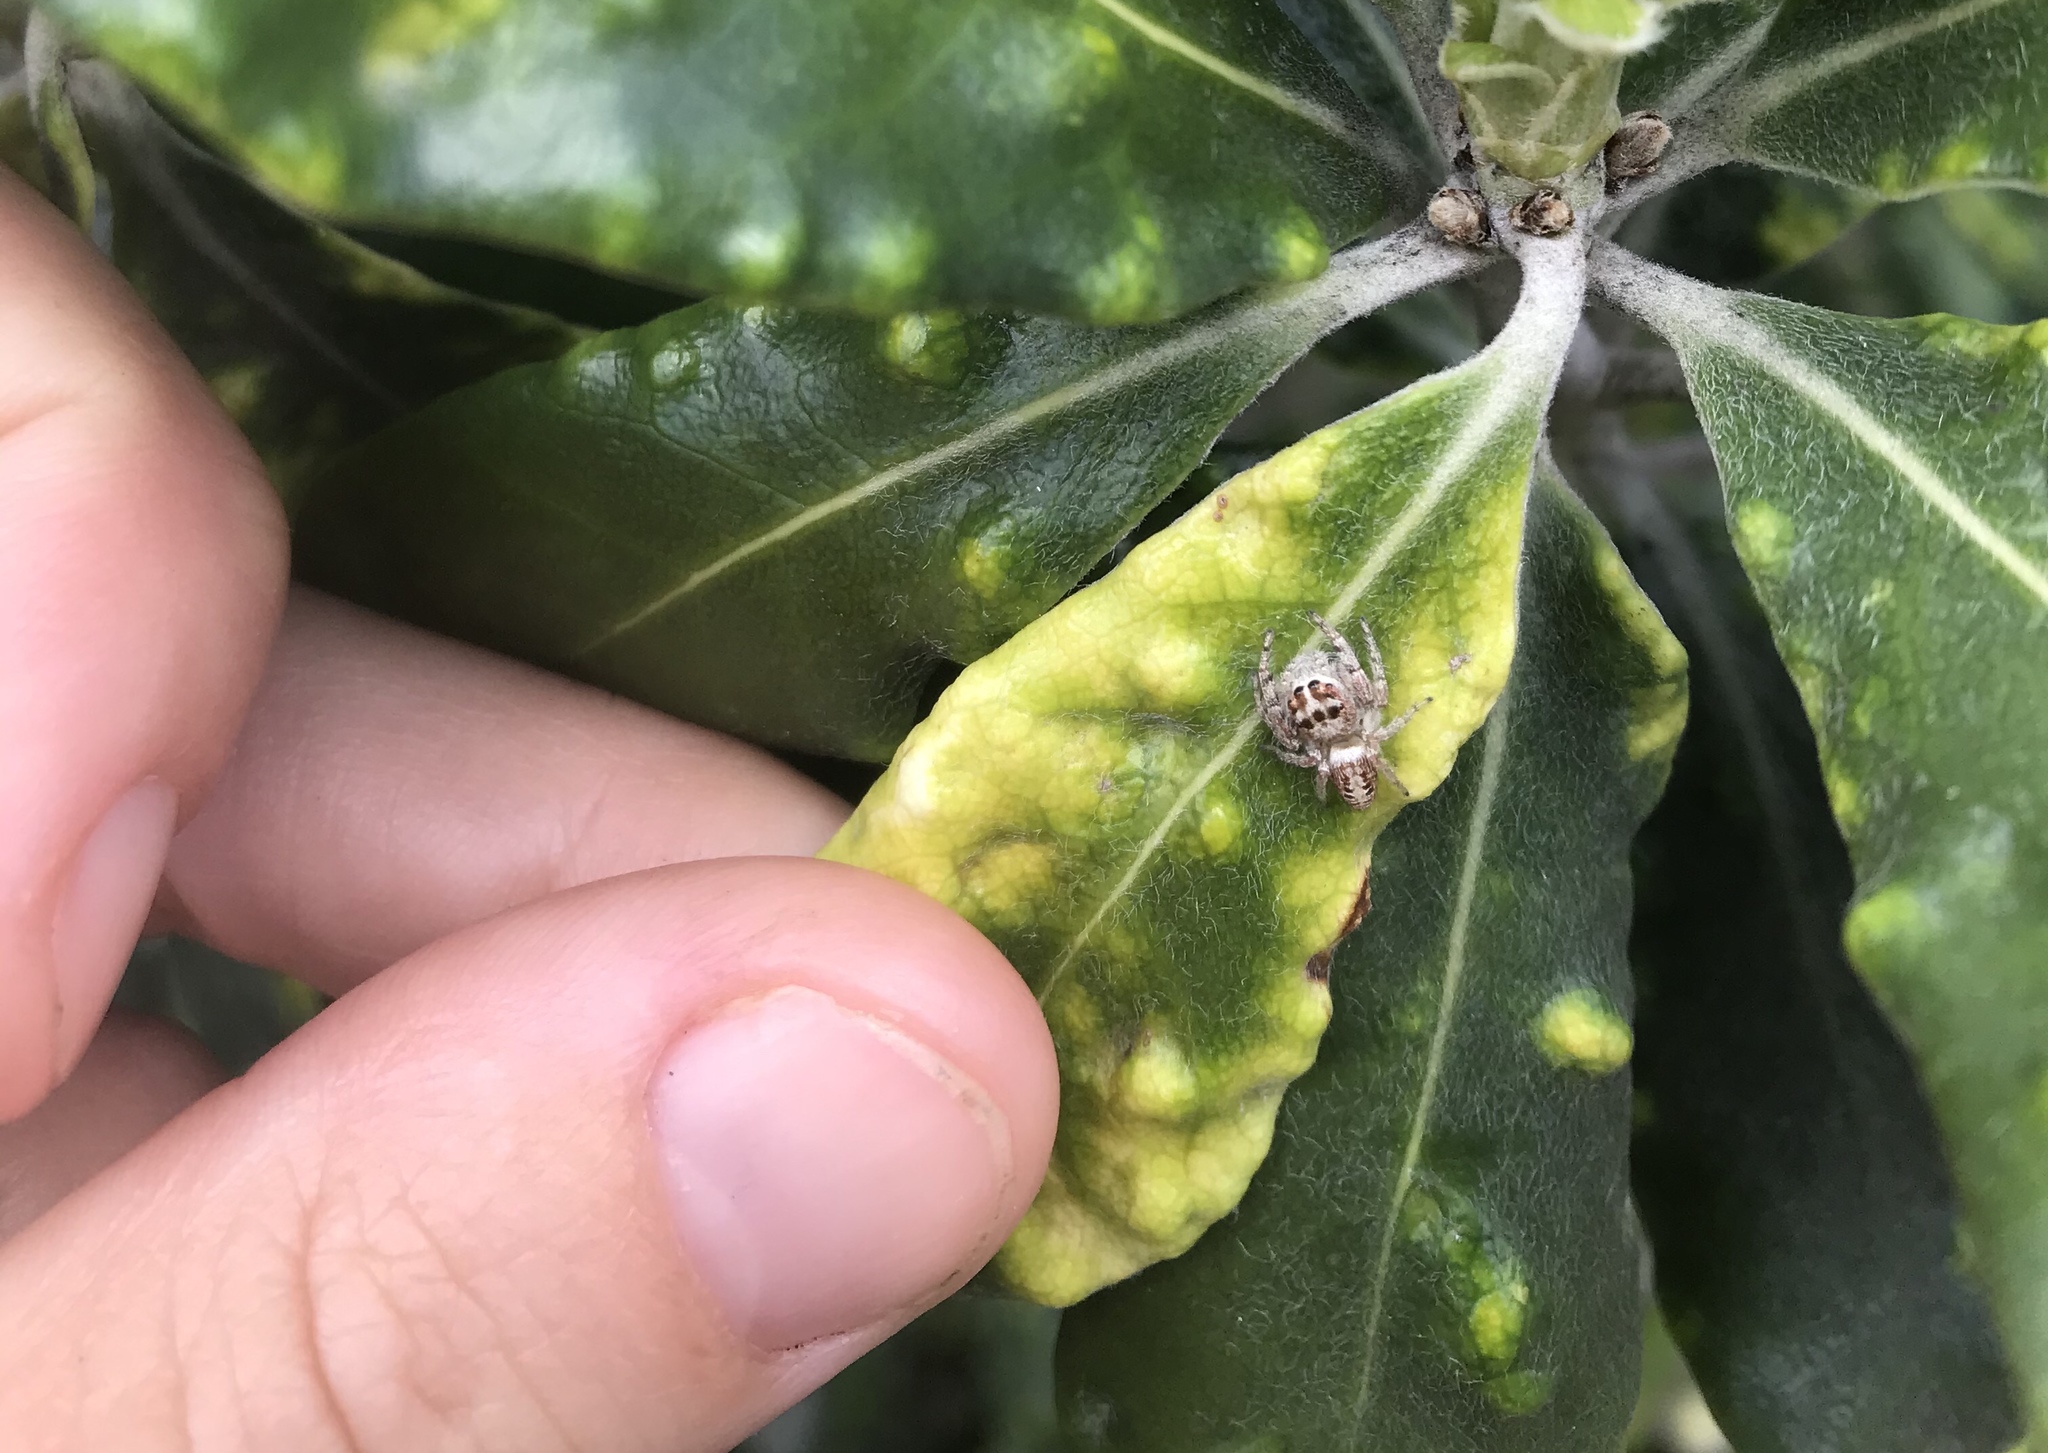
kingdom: Animalia
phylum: Arthropoda
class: Arachnida
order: Araneae
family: Salticidae
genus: Opisthoncus
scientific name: Opisthoncus polyphemus
